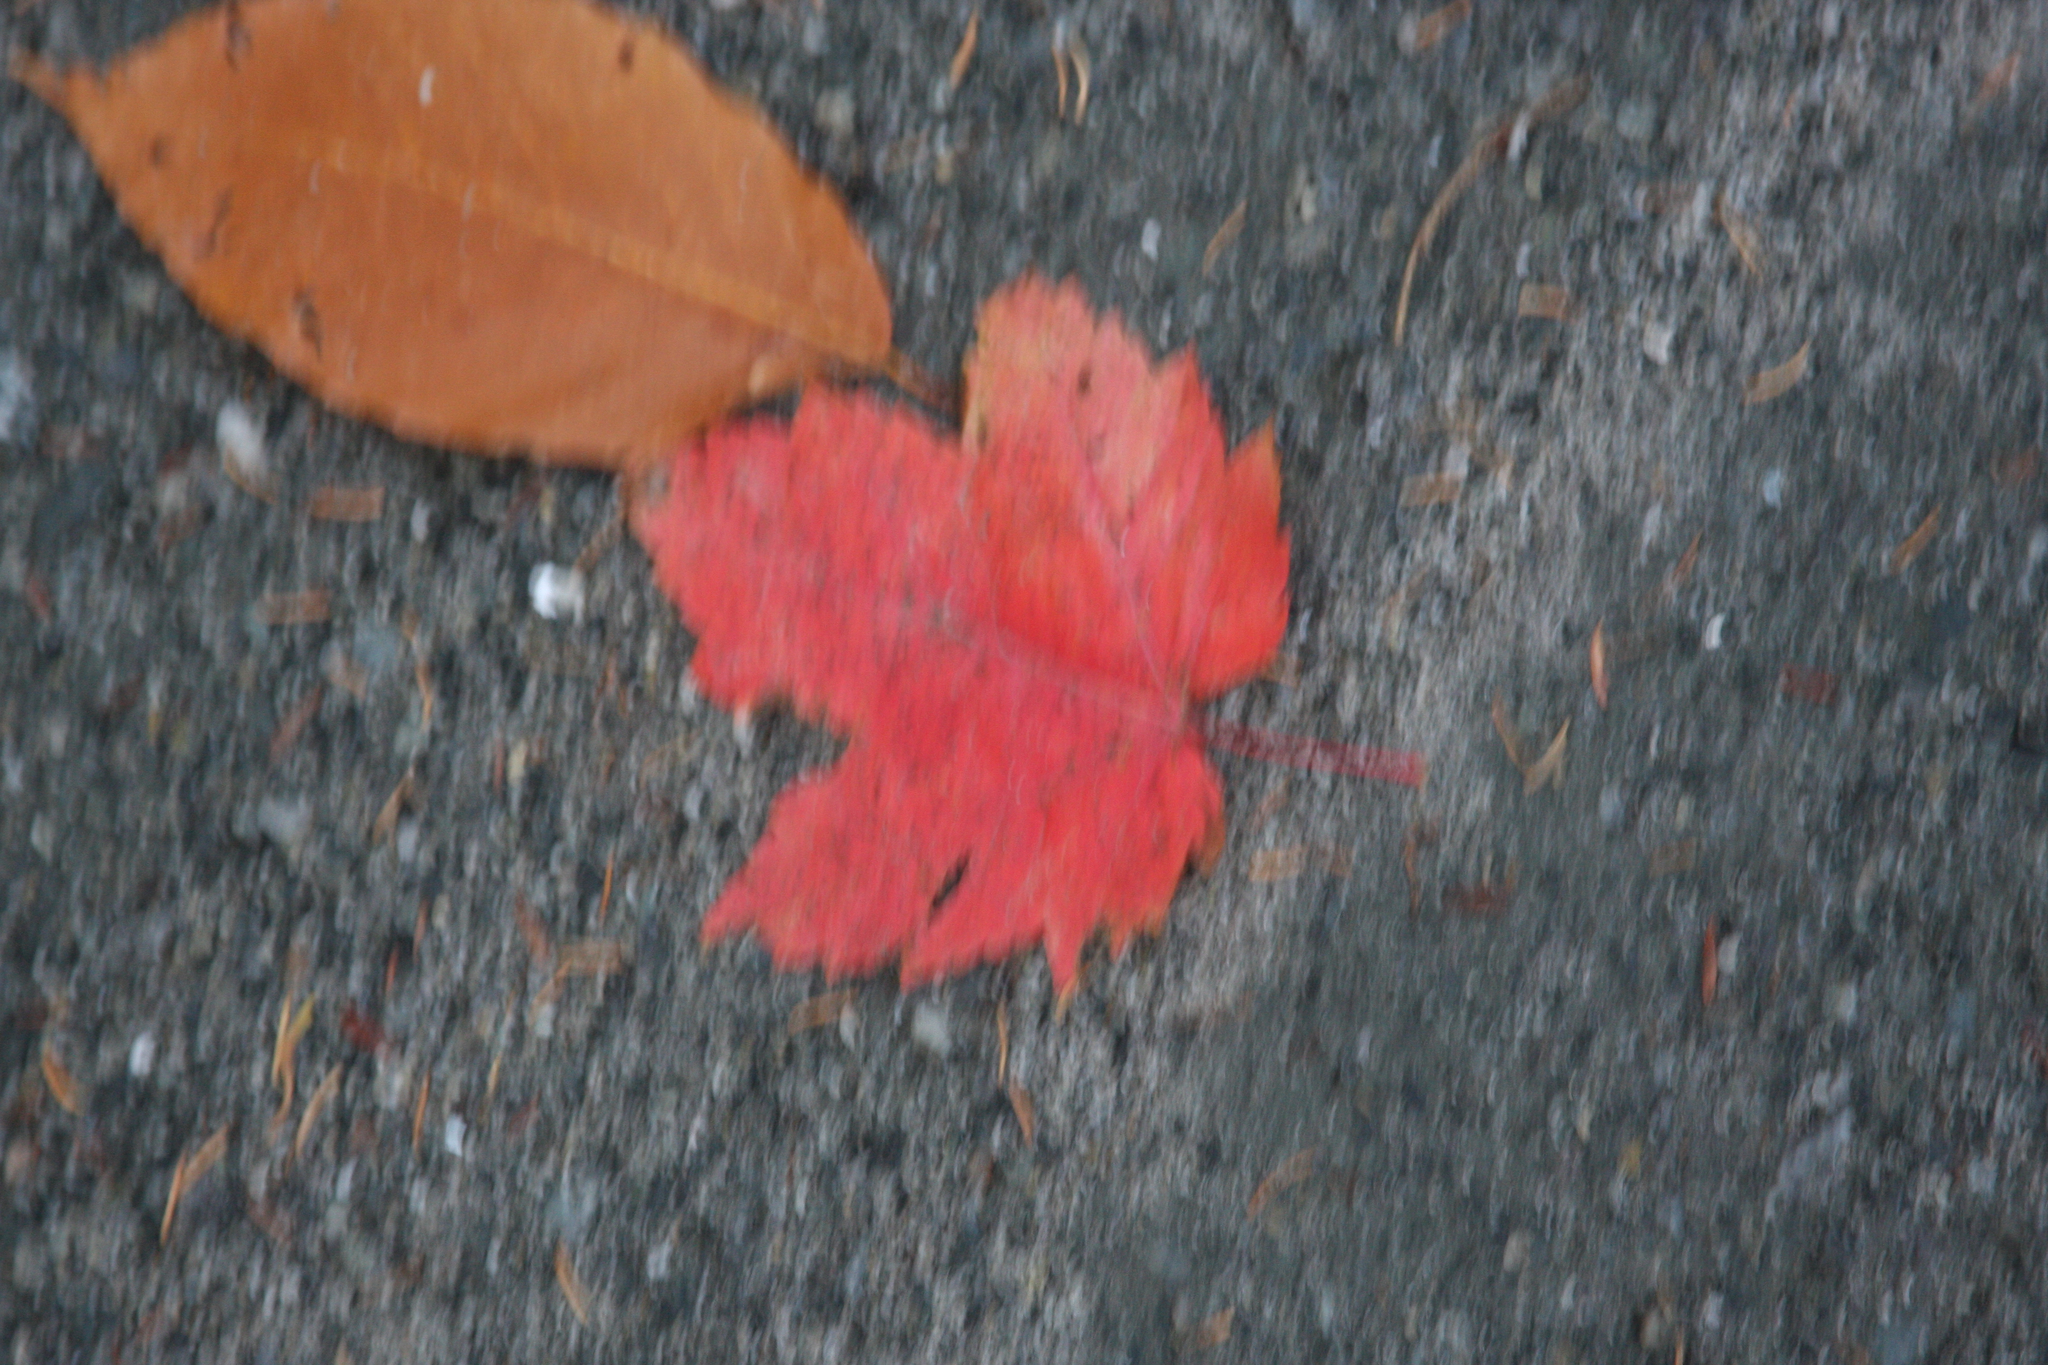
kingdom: Plantae
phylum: Tracheophyta
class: Magnoliopsida
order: Sapindales
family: Sapindaceae
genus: Acer
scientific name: Acer rubrum
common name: Red maple
